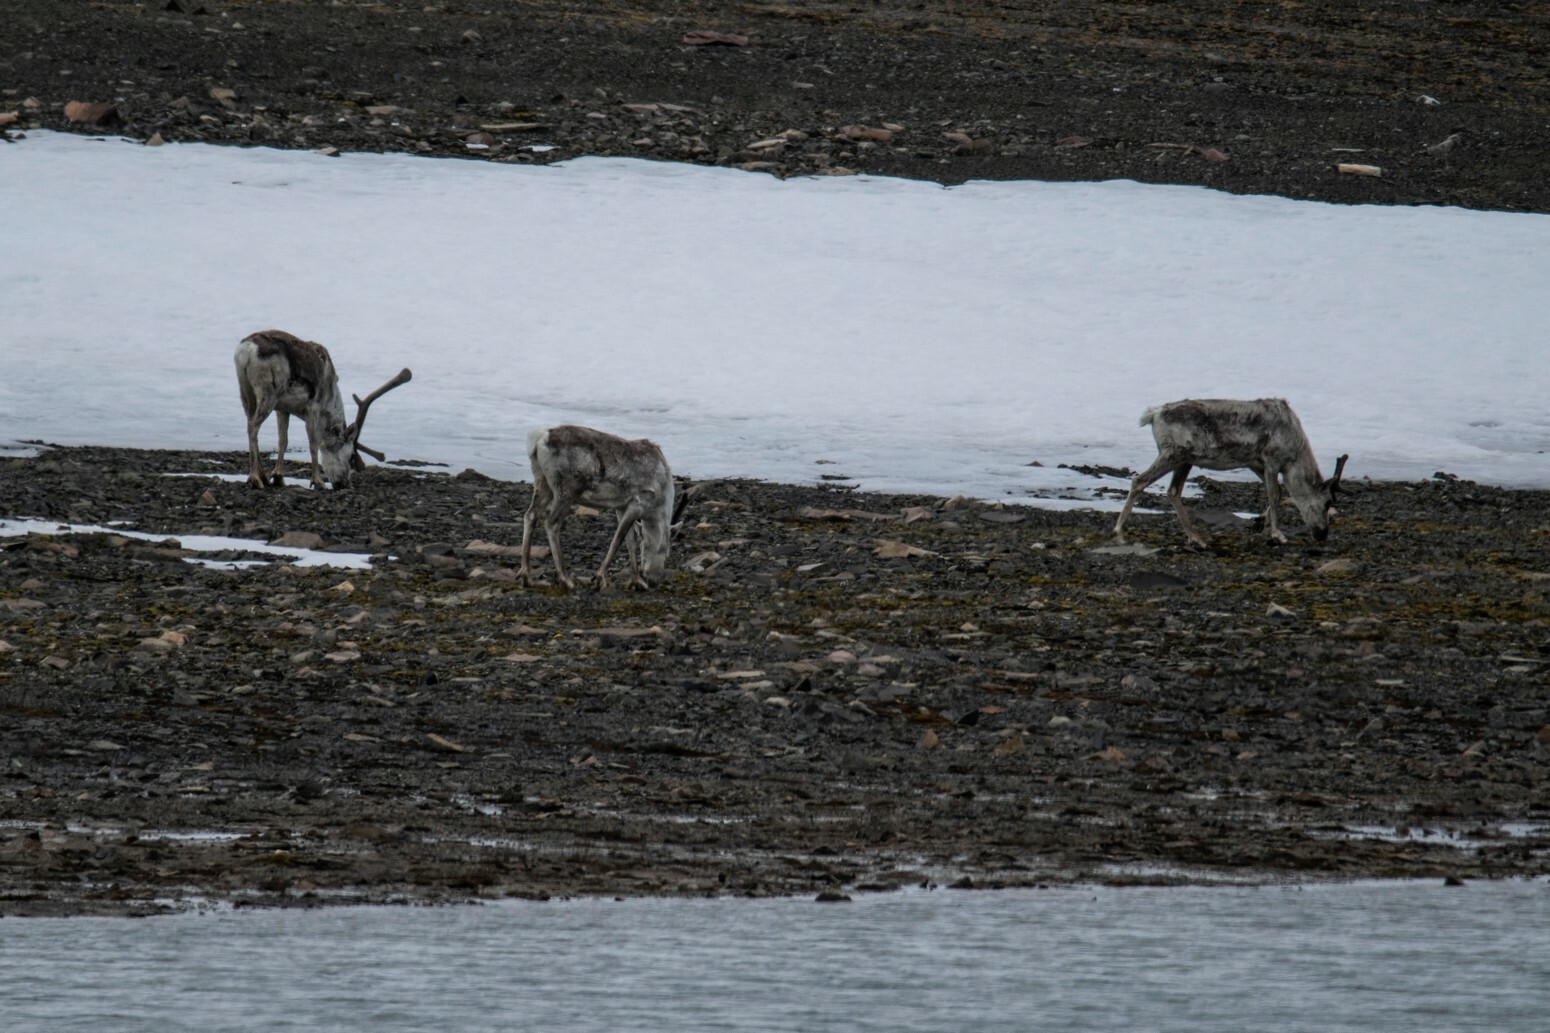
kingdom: Animalia
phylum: Chordata
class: Mammalia
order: Artiodactyla
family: Cervidae
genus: Rangifer
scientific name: Rangifer tarandus
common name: Reindeer
